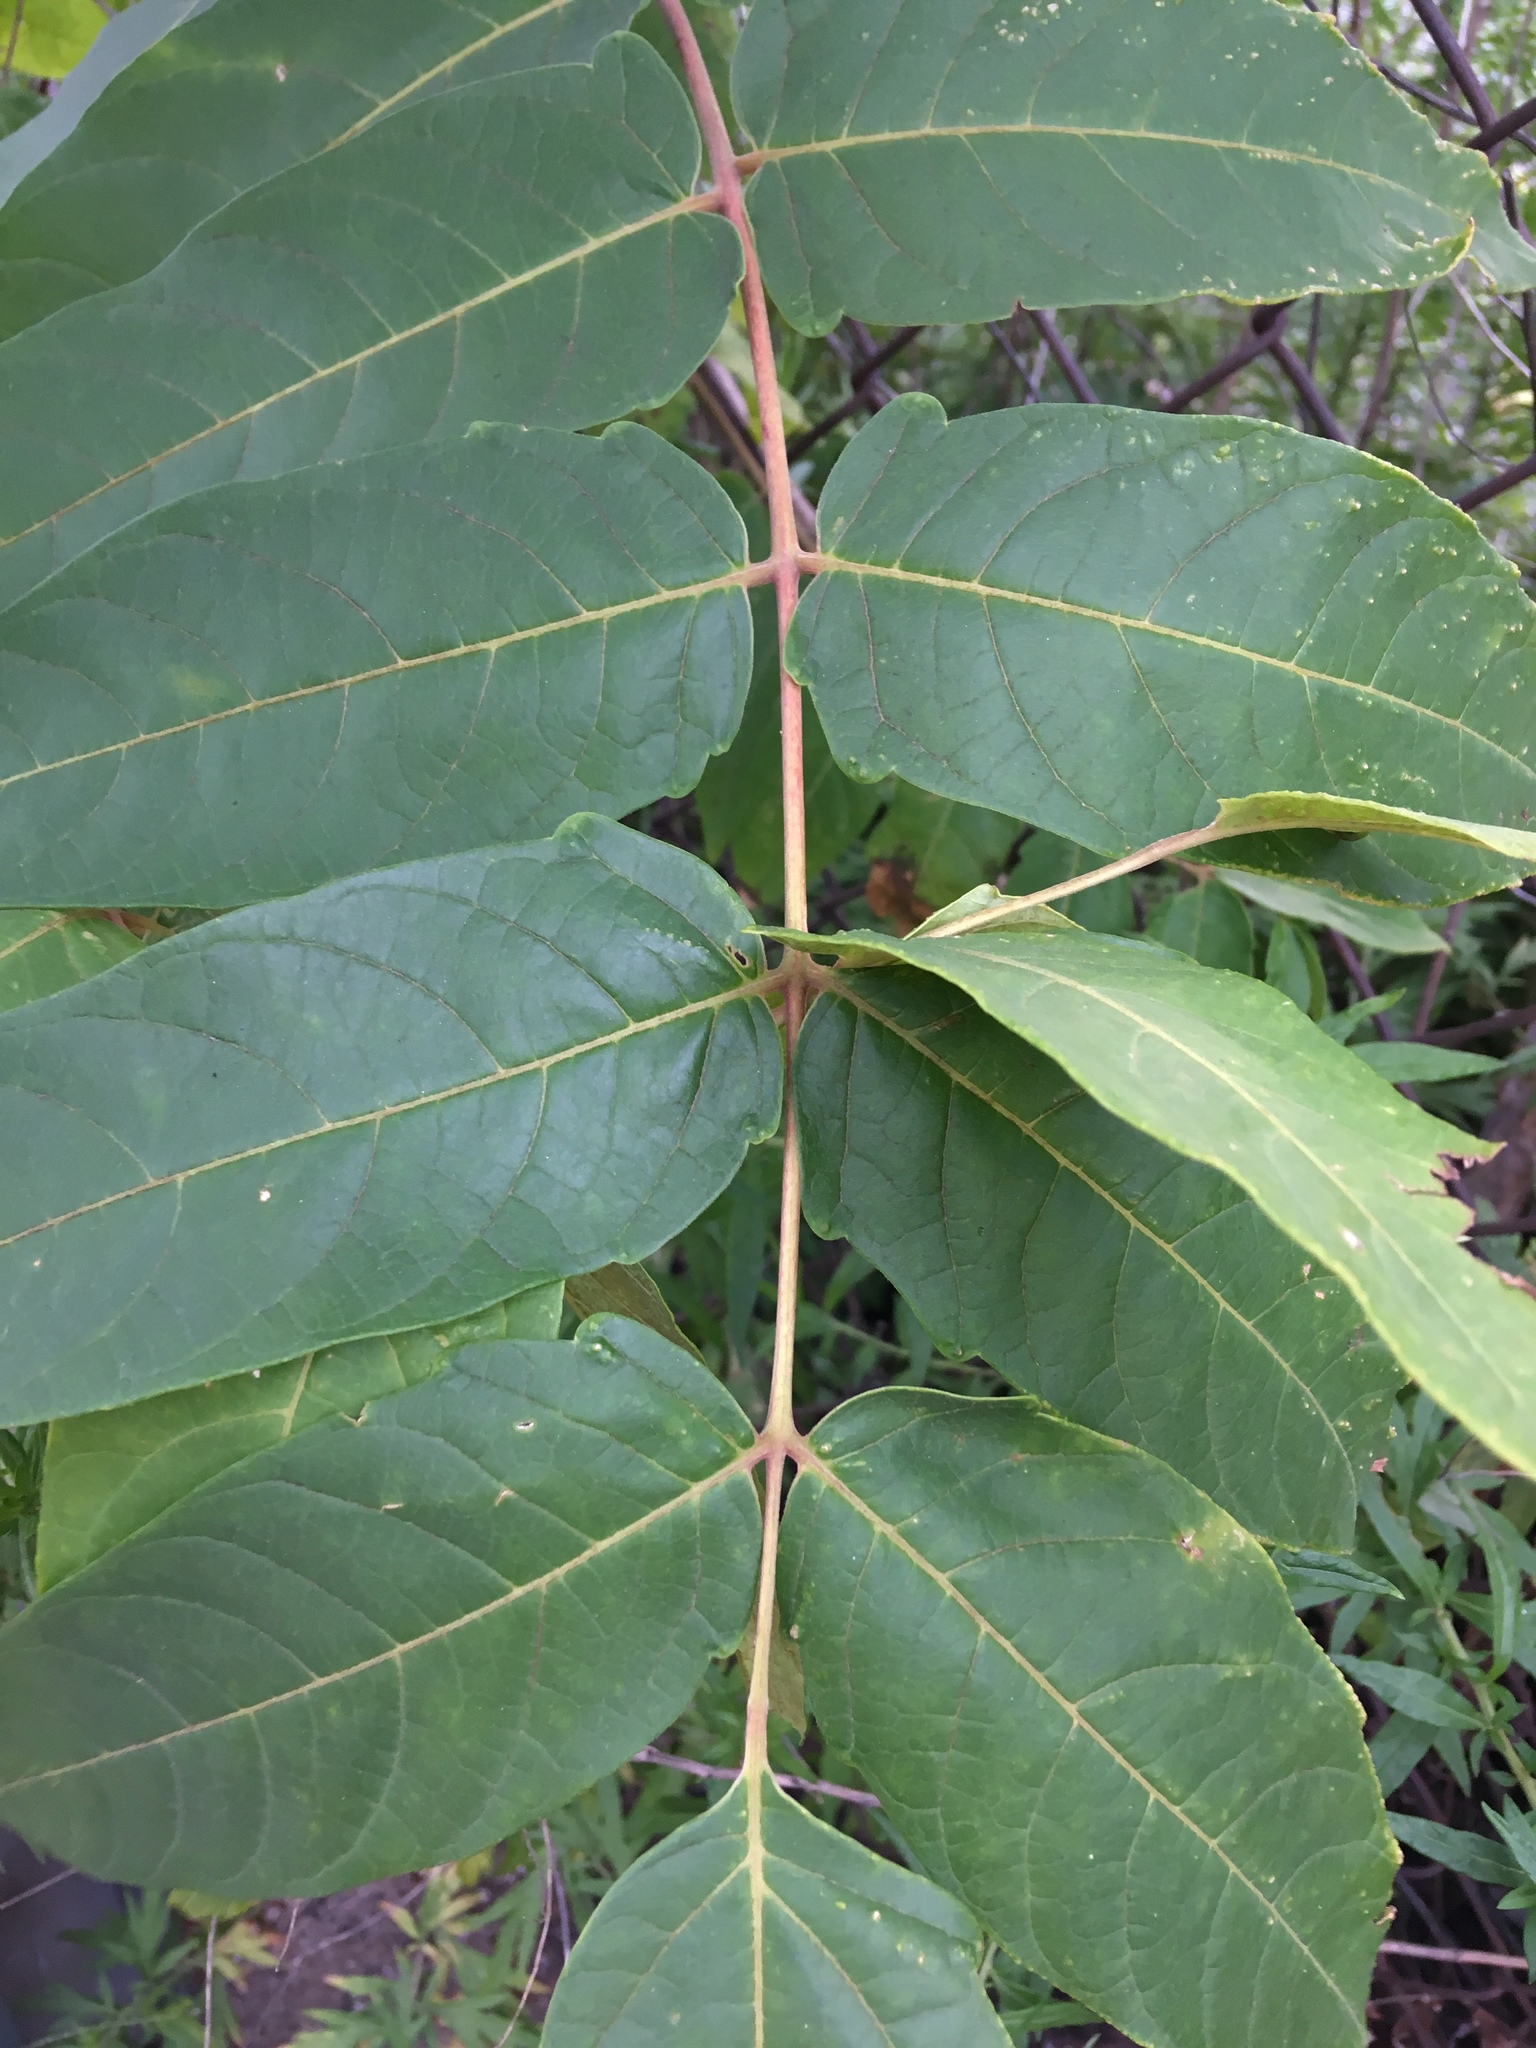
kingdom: Plantae
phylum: Tracheophyta
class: Magnoliopsida
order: Sapindales
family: Simaroubaceae
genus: Ailanthus
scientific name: Ailanthus altissima
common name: Tree-of-heaven
